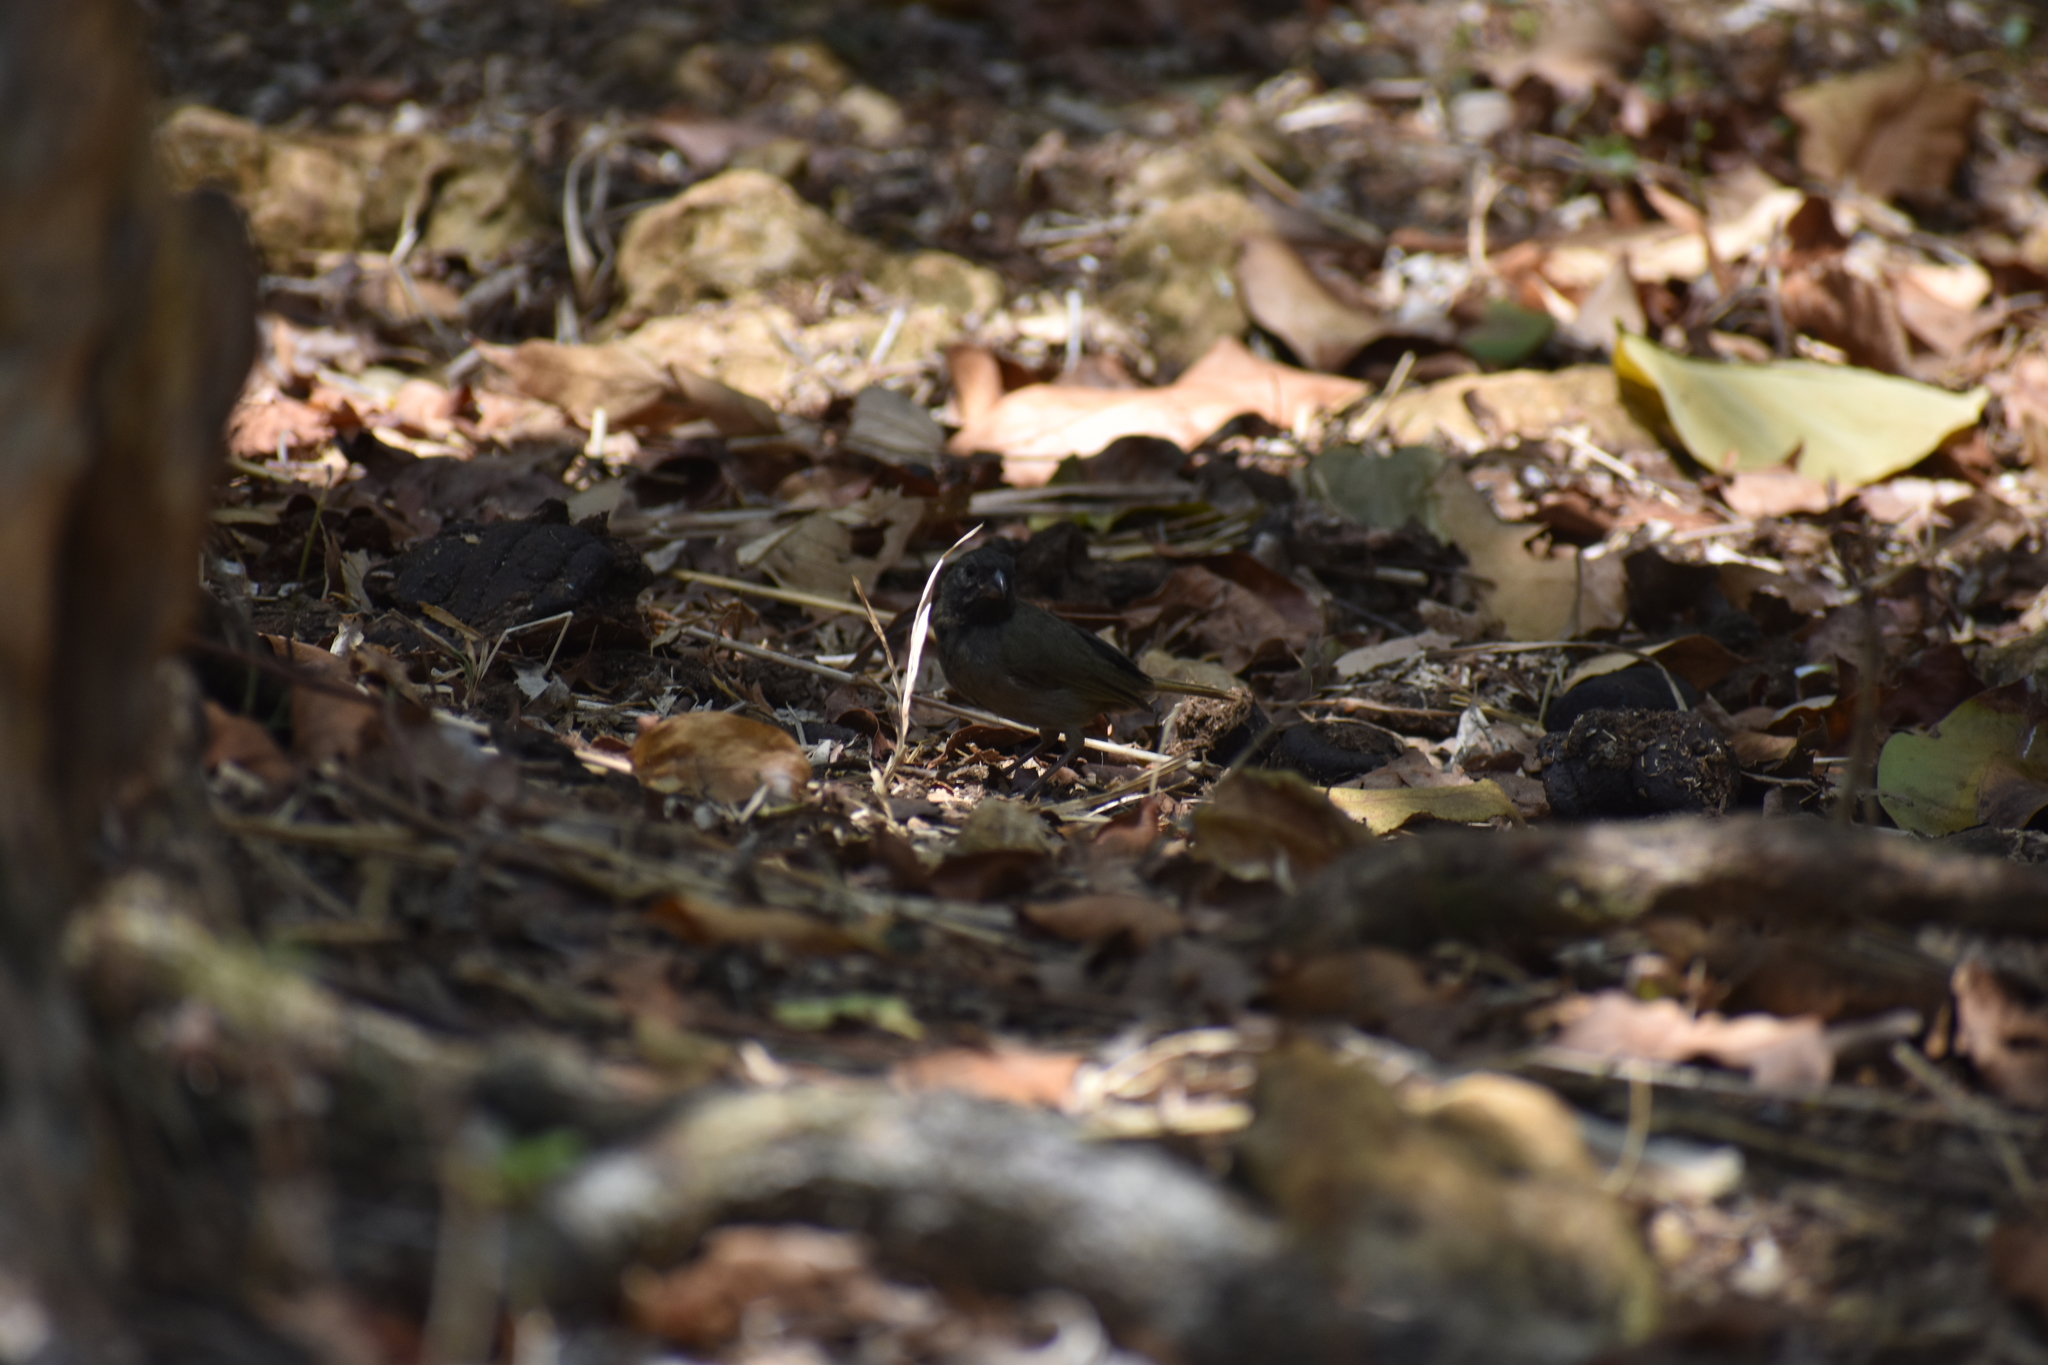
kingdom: Animalia
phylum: Chordata
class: Aves
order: Passeriformes
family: Thraupidae
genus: Melanospiza
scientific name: Melanospiza bicolor
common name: Black-faced grassquit
